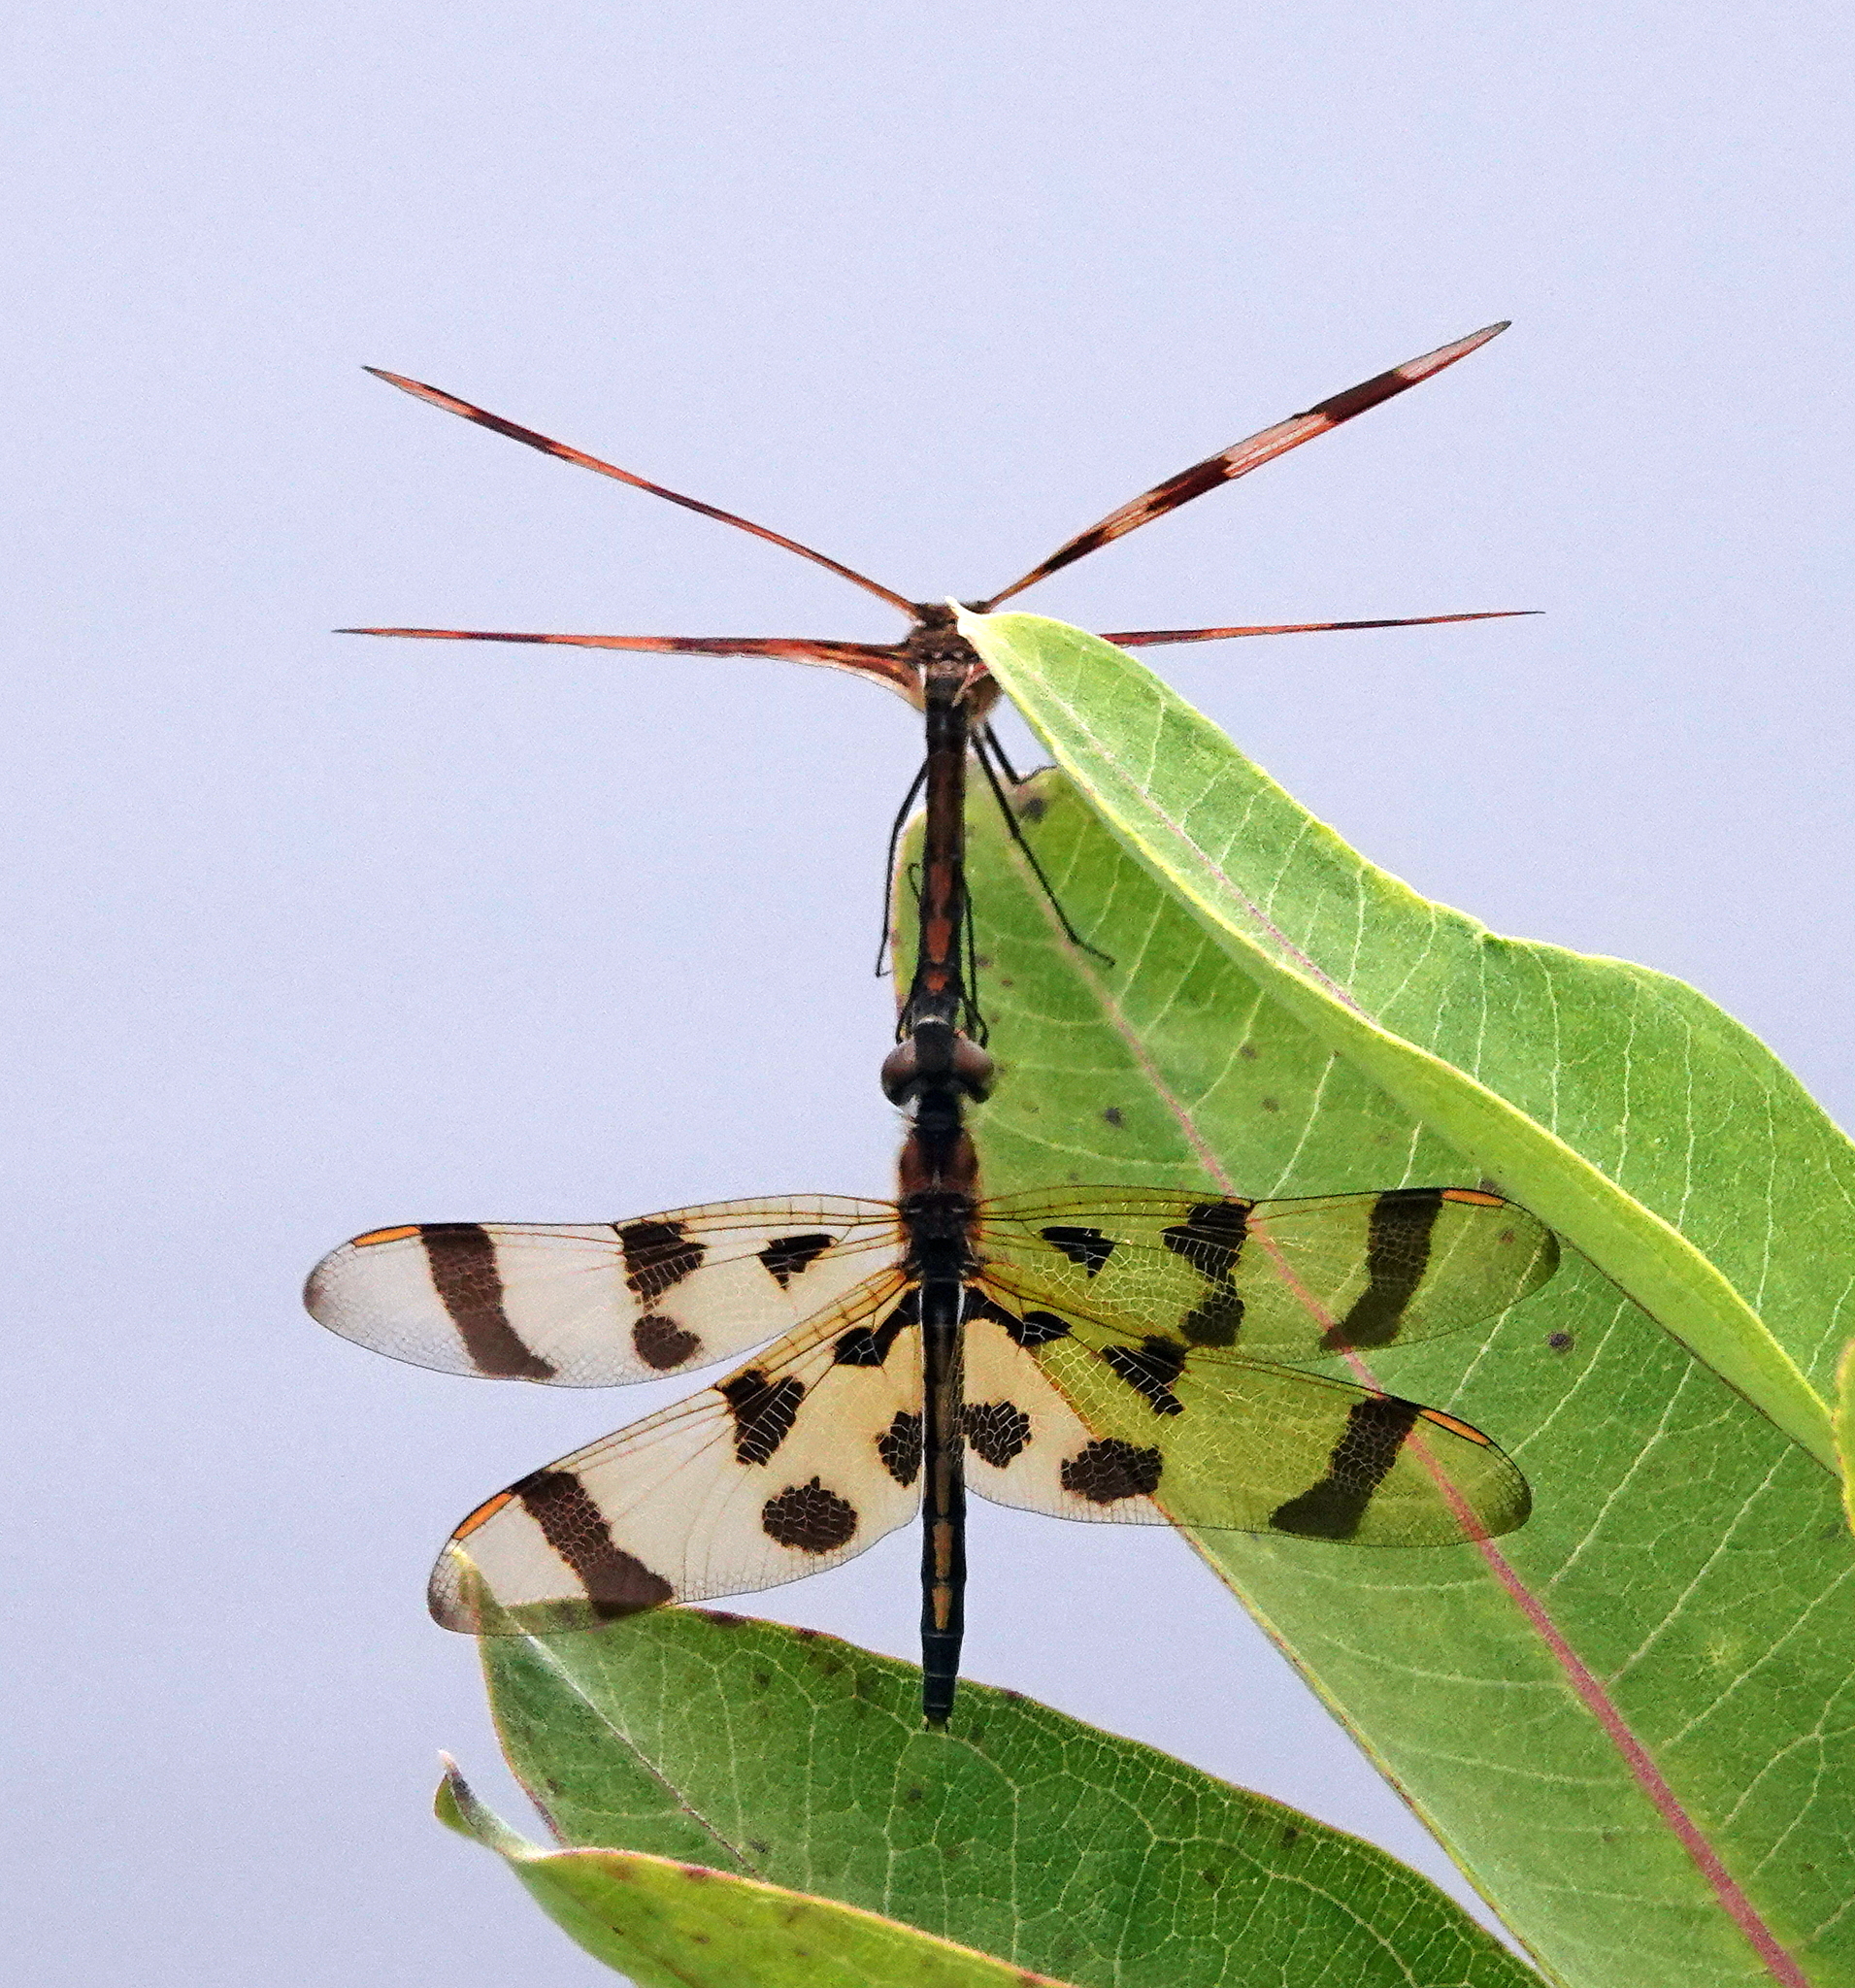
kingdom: Animalia
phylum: Arthropoda
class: Insecta
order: Odonata
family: Libellulidae
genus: Celithemis
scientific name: Celithemis eponina
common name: Halloween pennant
